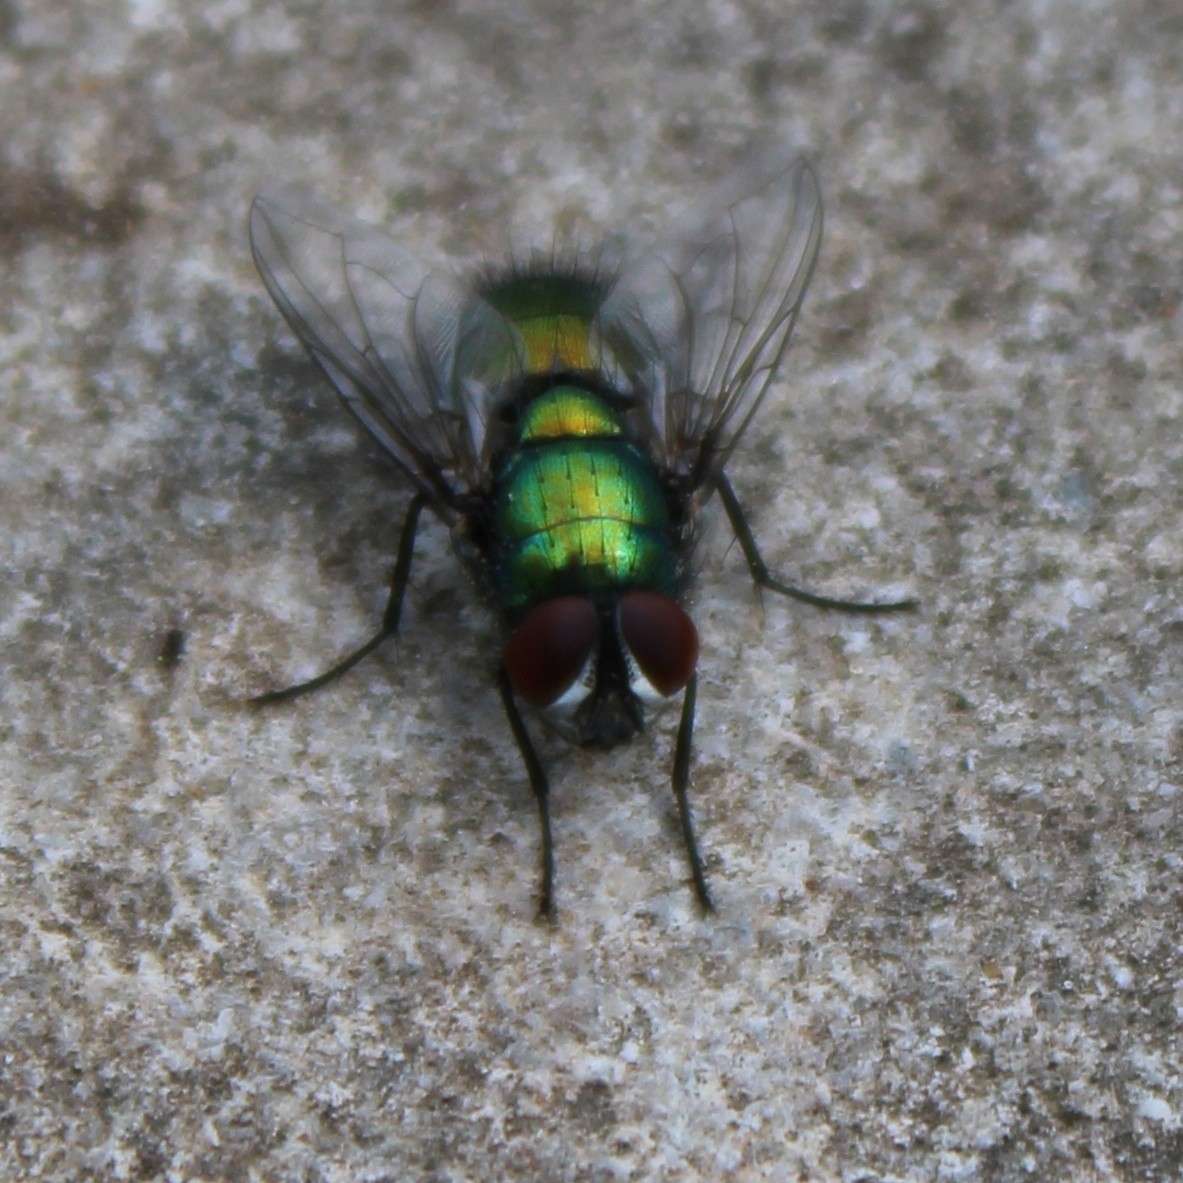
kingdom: Animalia
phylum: Arthropoda
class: Insecta
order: Diptera
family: Calliphoridae
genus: Lucilia
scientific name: Lucilia sericata
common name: Blow fly
